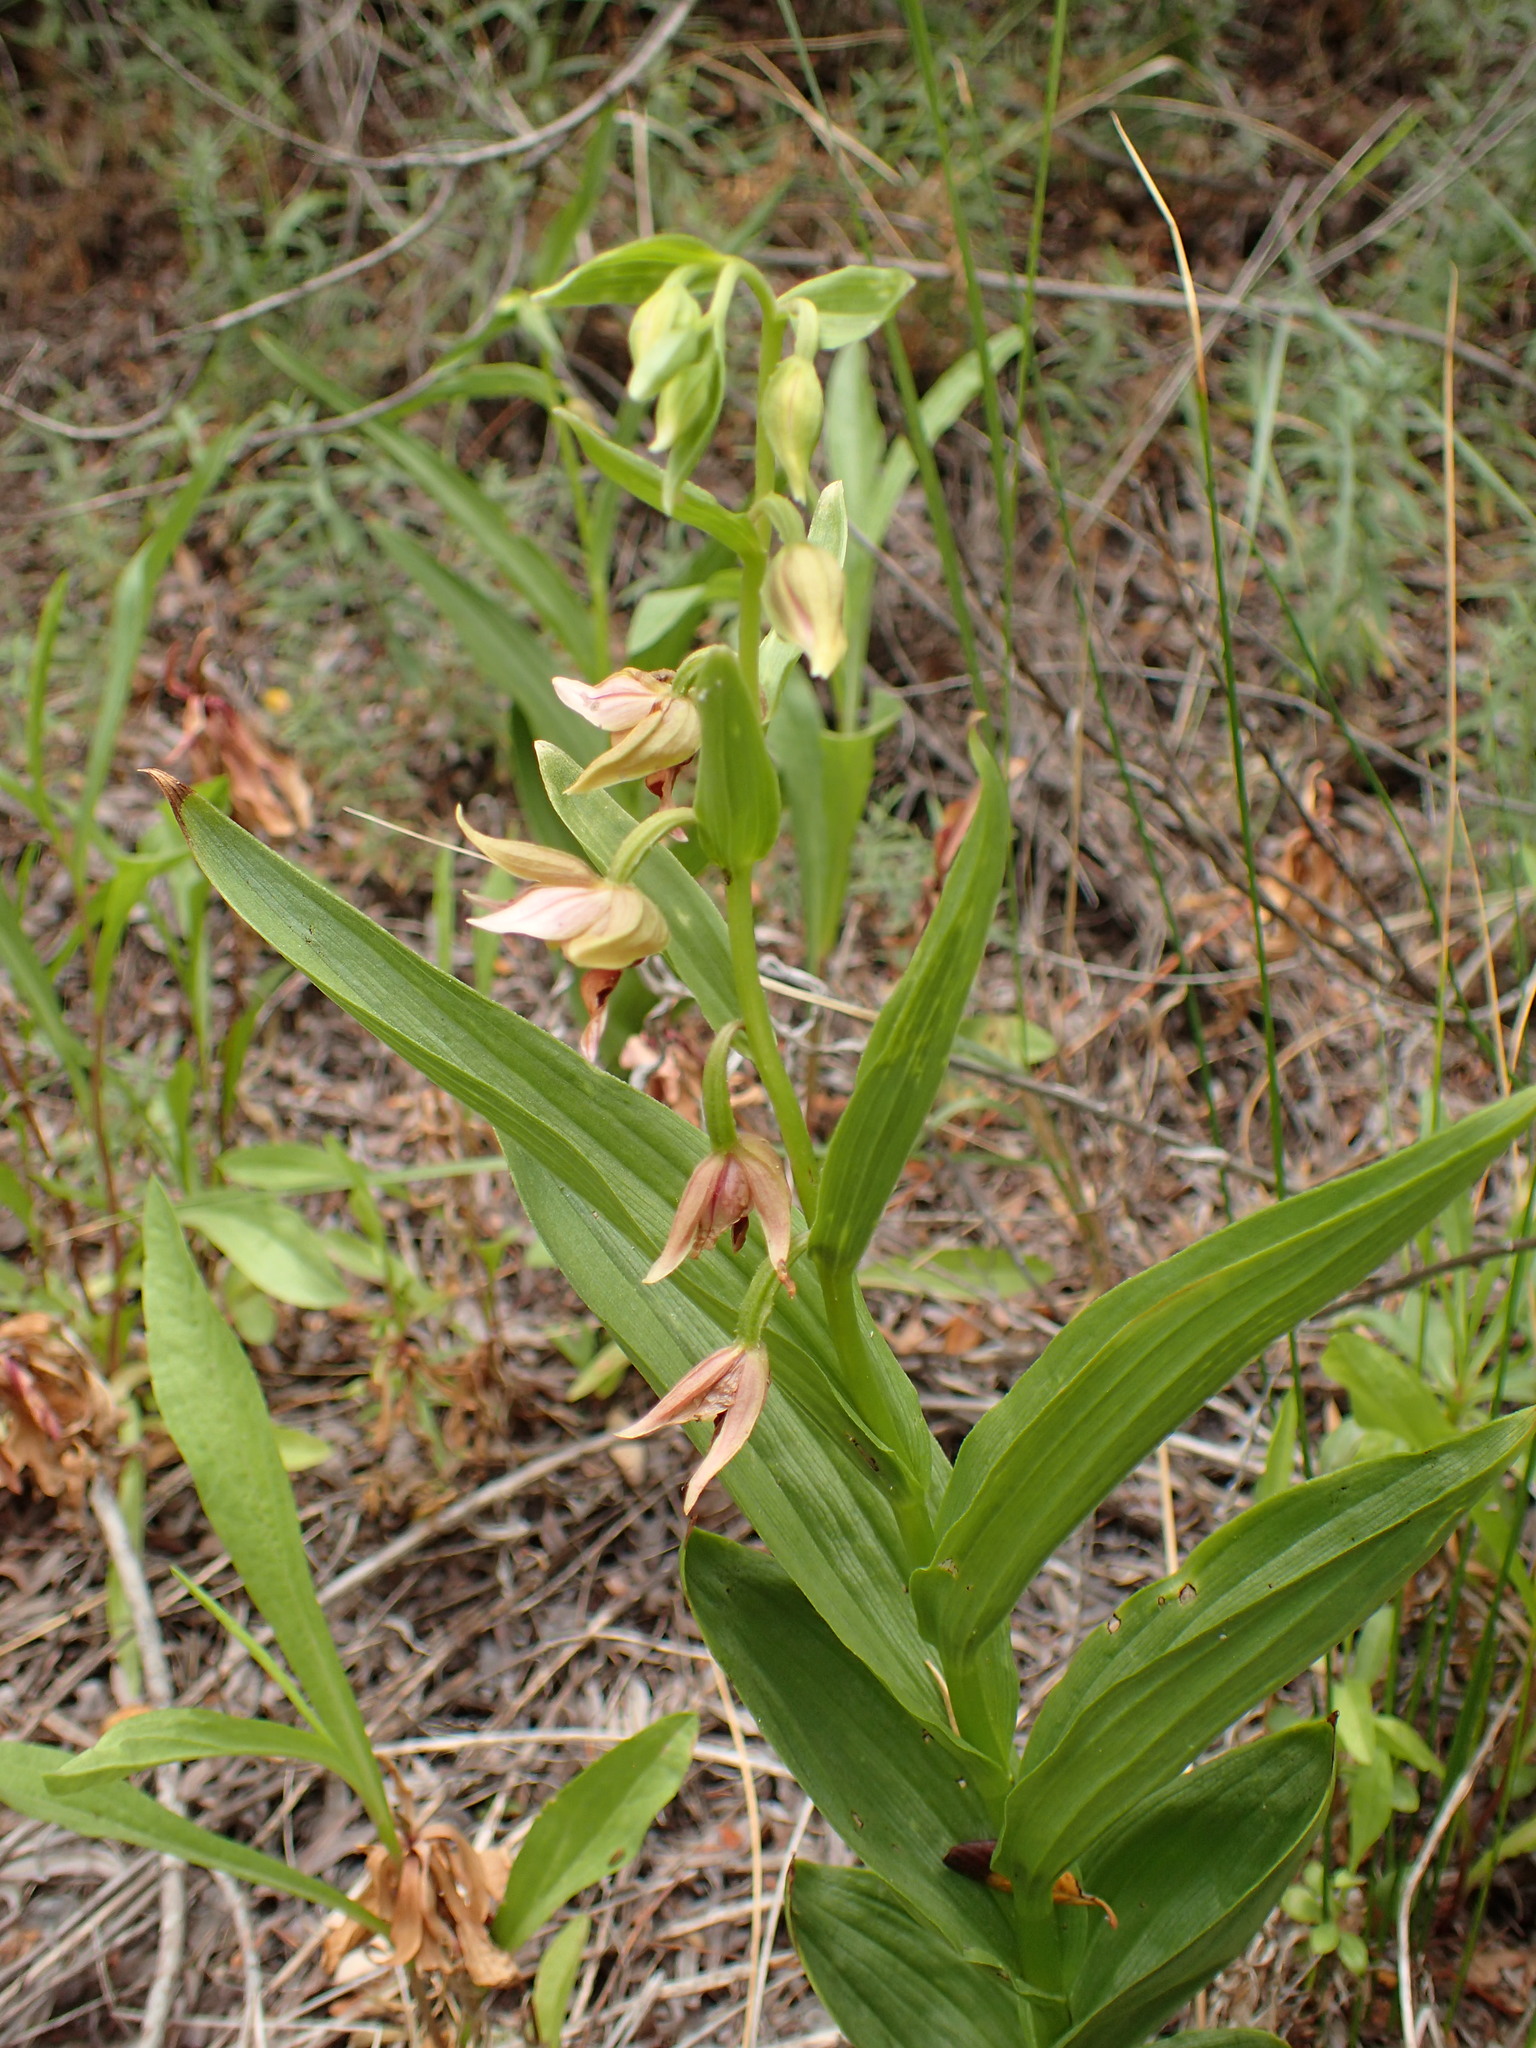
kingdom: Plantae
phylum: Tracheophyta
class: Liliopsida
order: Asparagales
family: Orchidaceae
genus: Epipactis
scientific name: Epipactis gigantea
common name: Chatterbox
